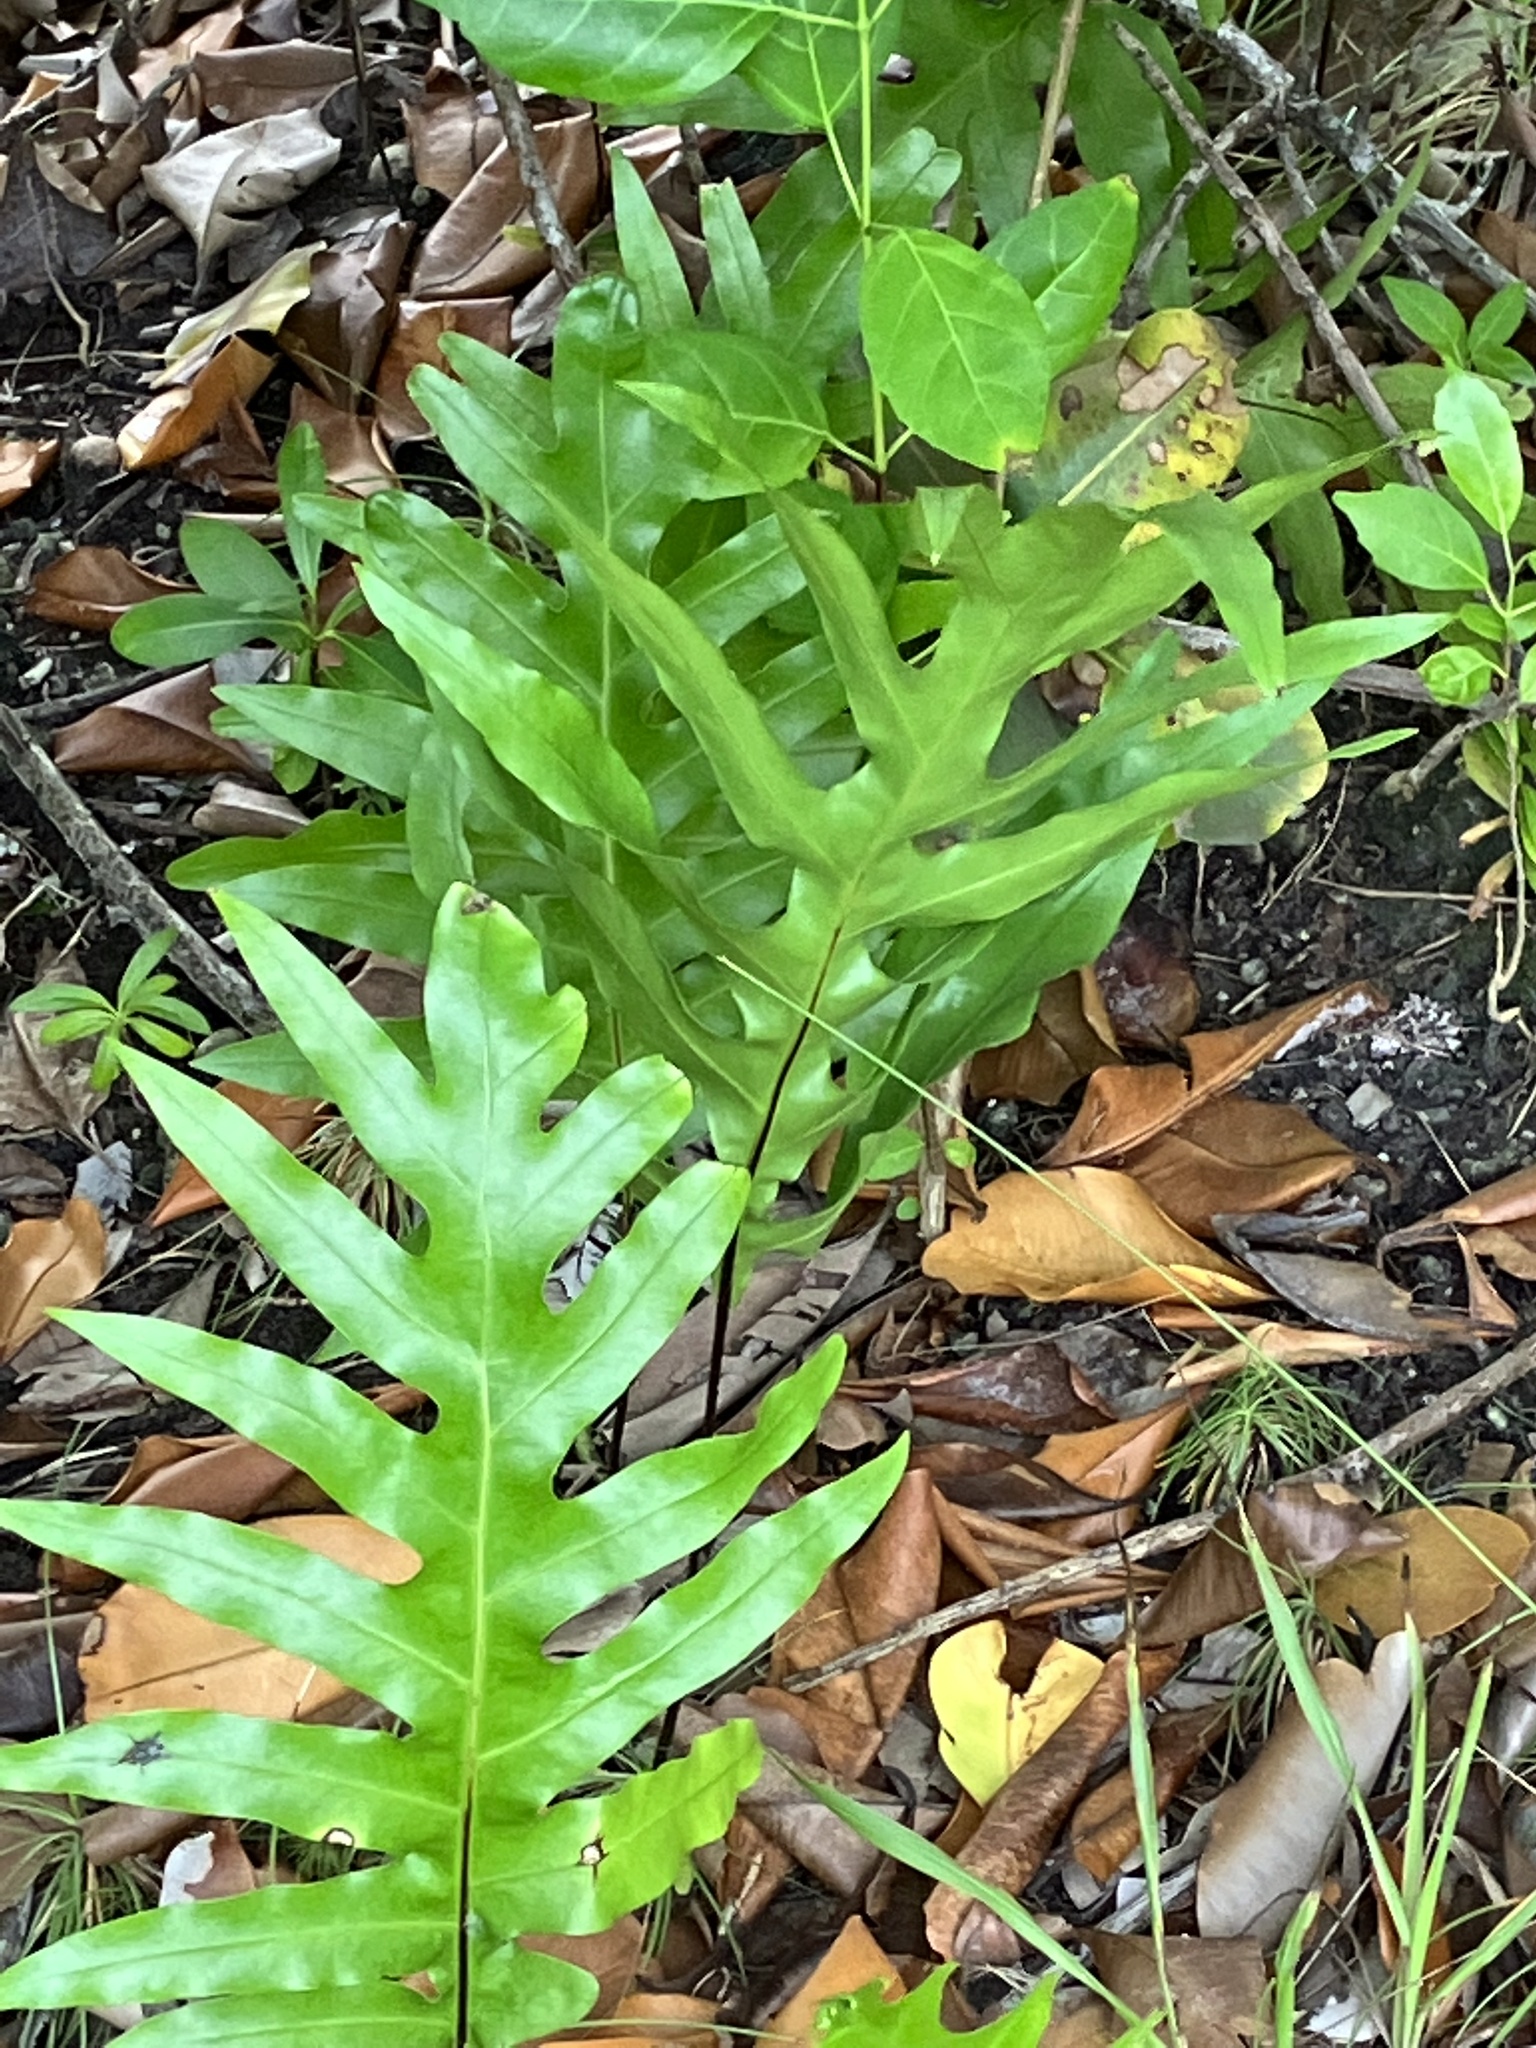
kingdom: Plantae
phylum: Tracheophyta
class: Polypodiopsida
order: Polypodiales
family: Polypodiaceae
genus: Microsorum
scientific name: Microsorum scolopendria
